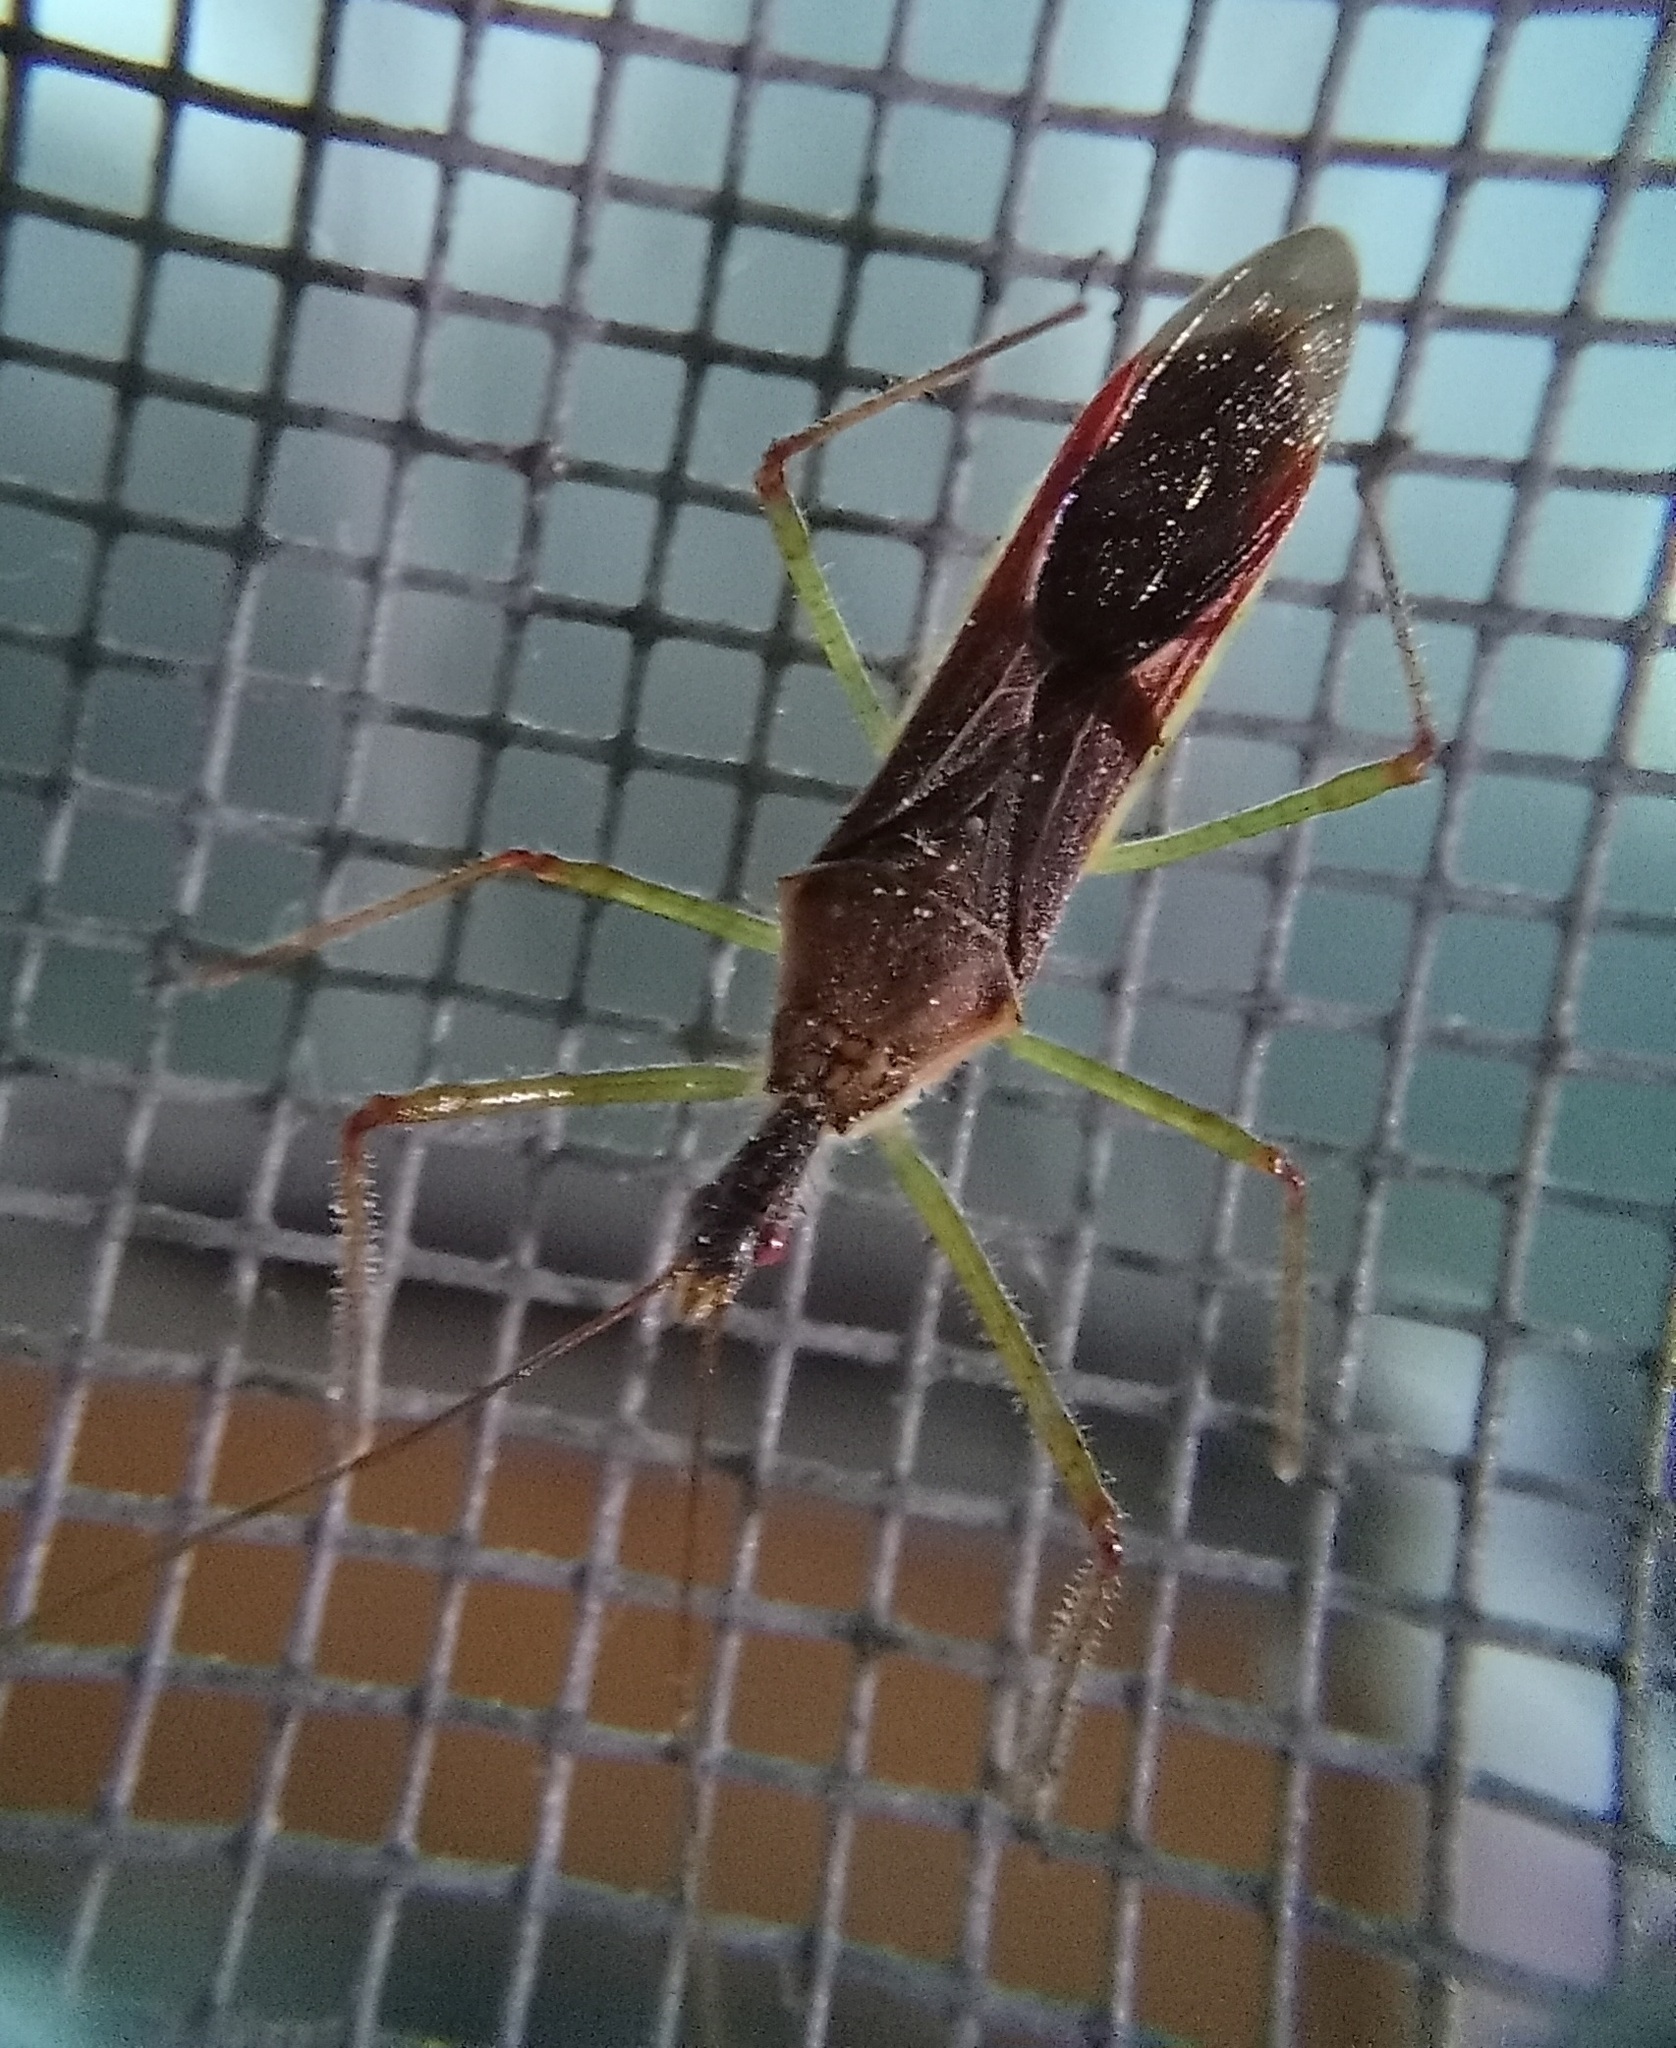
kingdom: Animalia
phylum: Arthropoda
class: Insecta
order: Hemiptera
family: Reduviidae
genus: Zelus
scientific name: Zelus renardii
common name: Assassin bug
